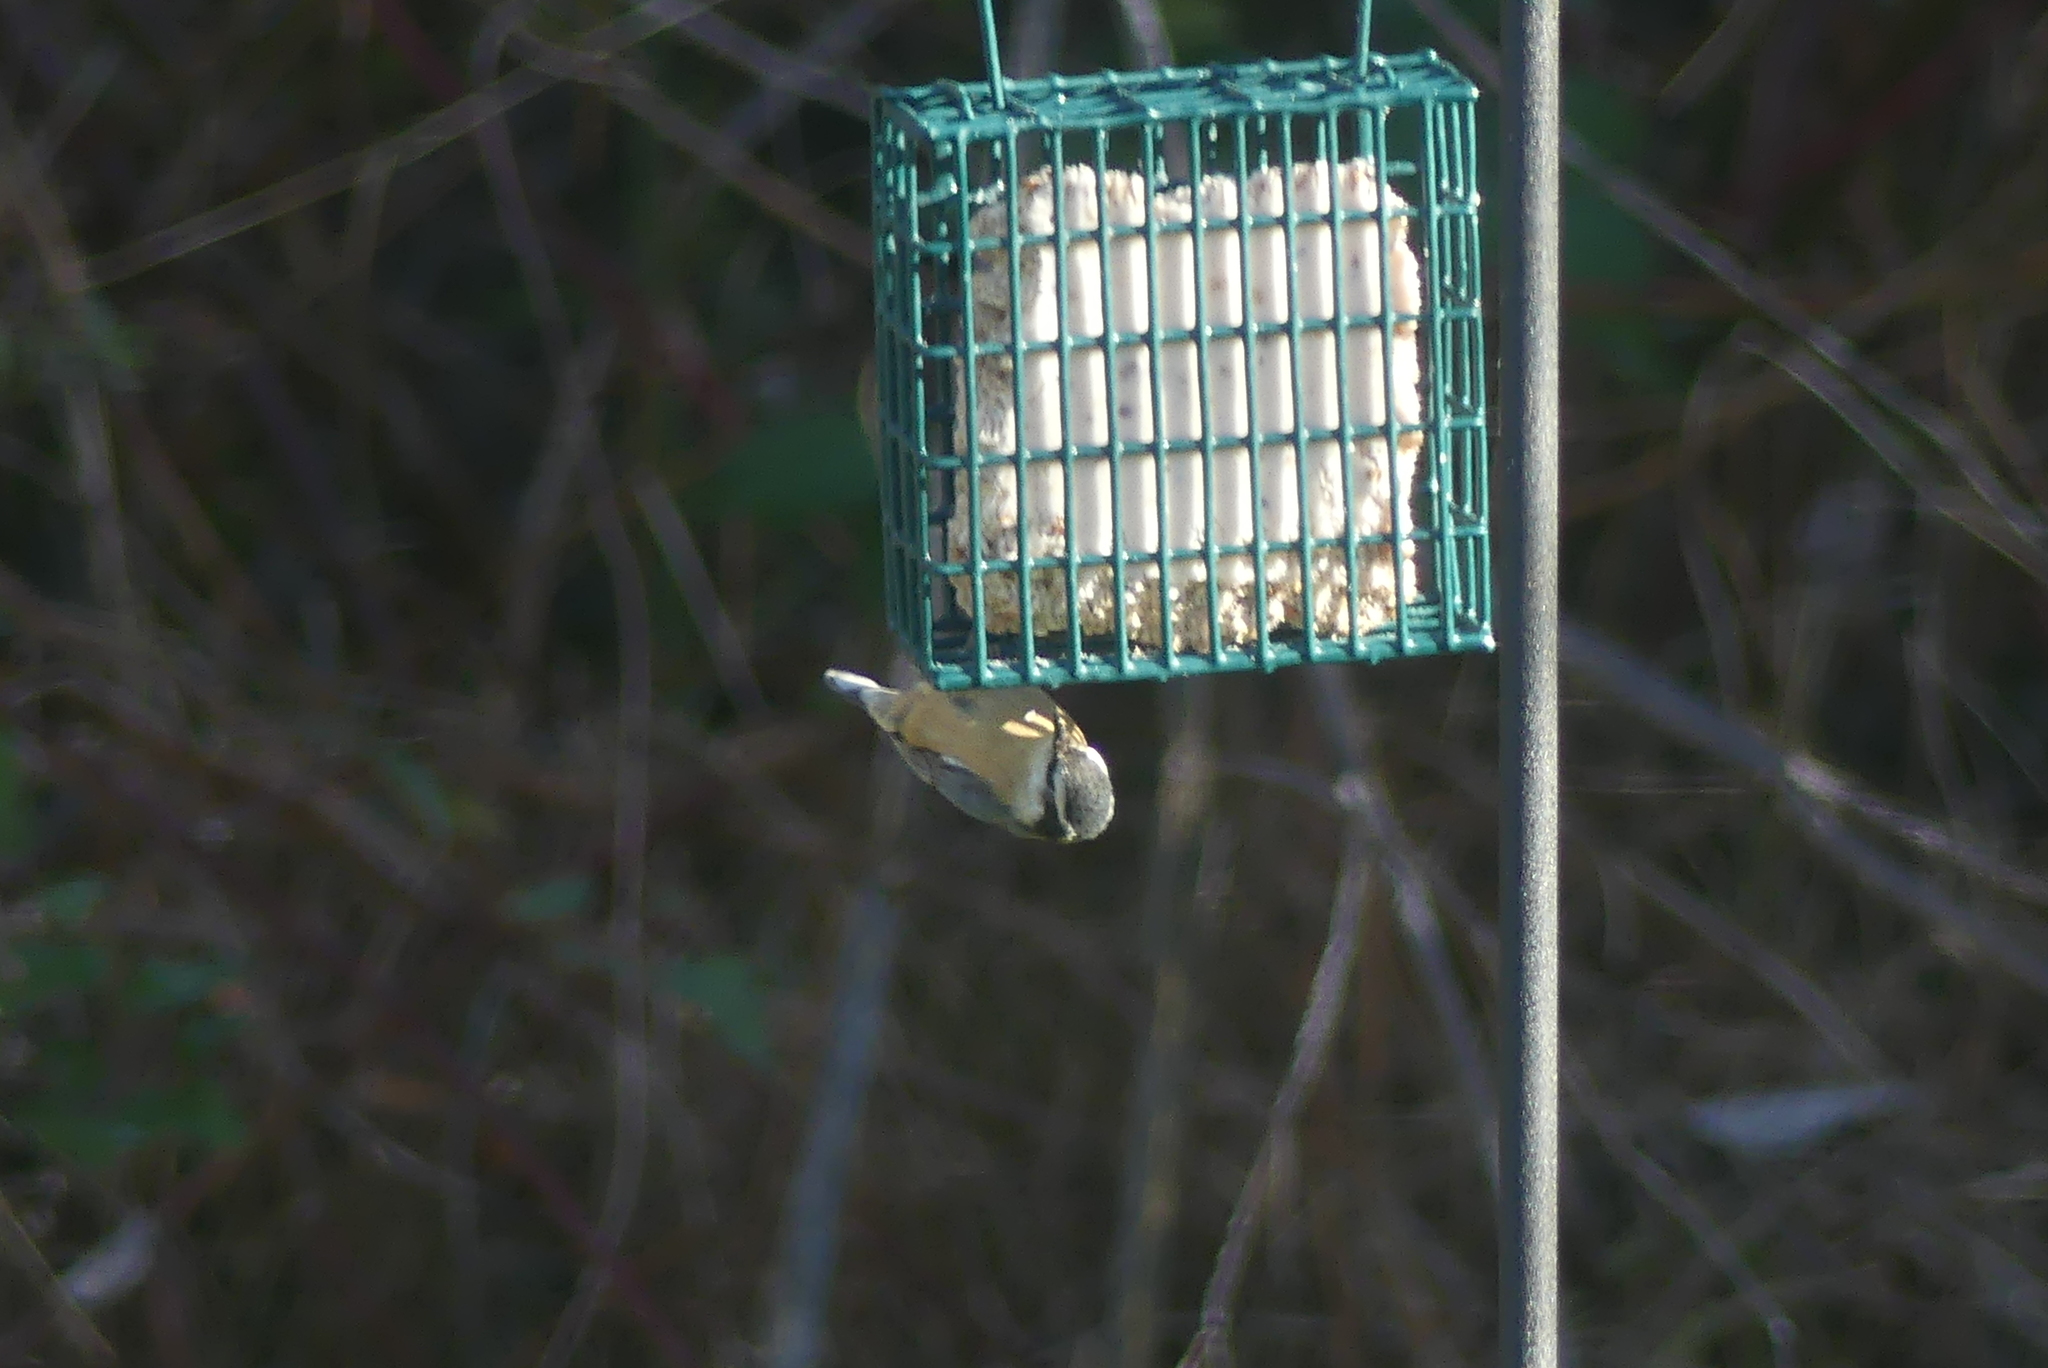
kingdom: Animalia
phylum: Chordata
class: Aves
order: Passeriformes
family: Sittidae
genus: Sitta
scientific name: Sitta canadensis
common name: Red-breasted nuthatch
